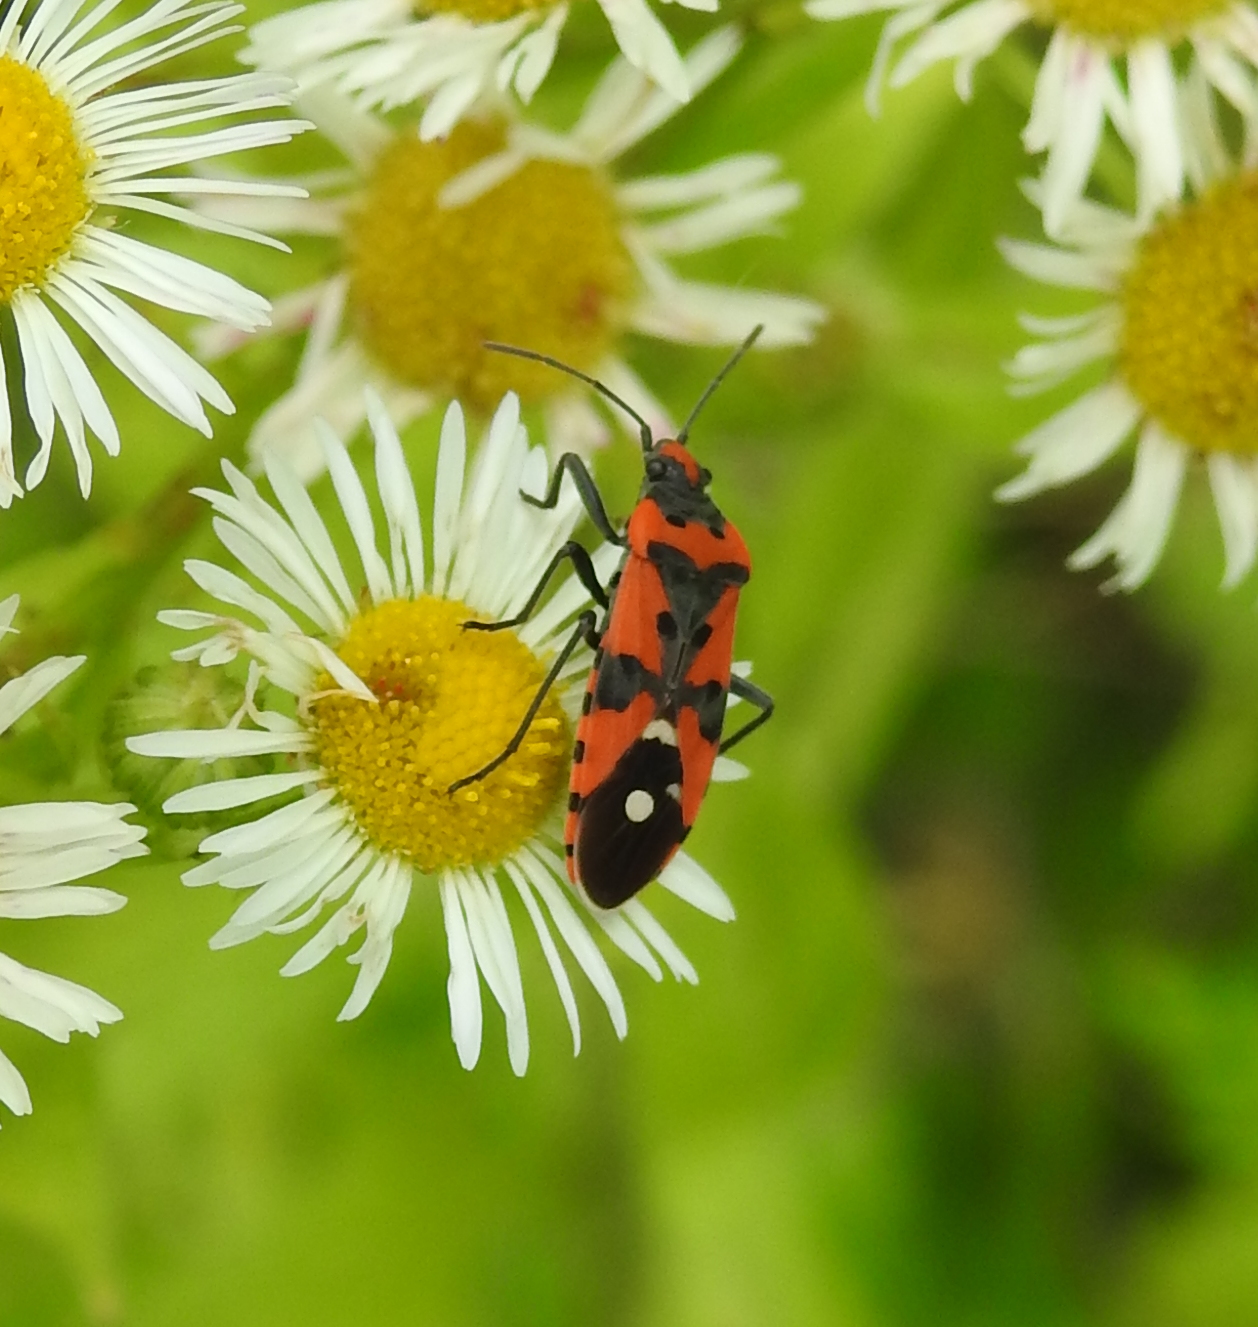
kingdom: Animalia
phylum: Arthropoda
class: Insecta
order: Hemiptera
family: Lygaeidae
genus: Lygaeus
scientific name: Lygaeus equestris
